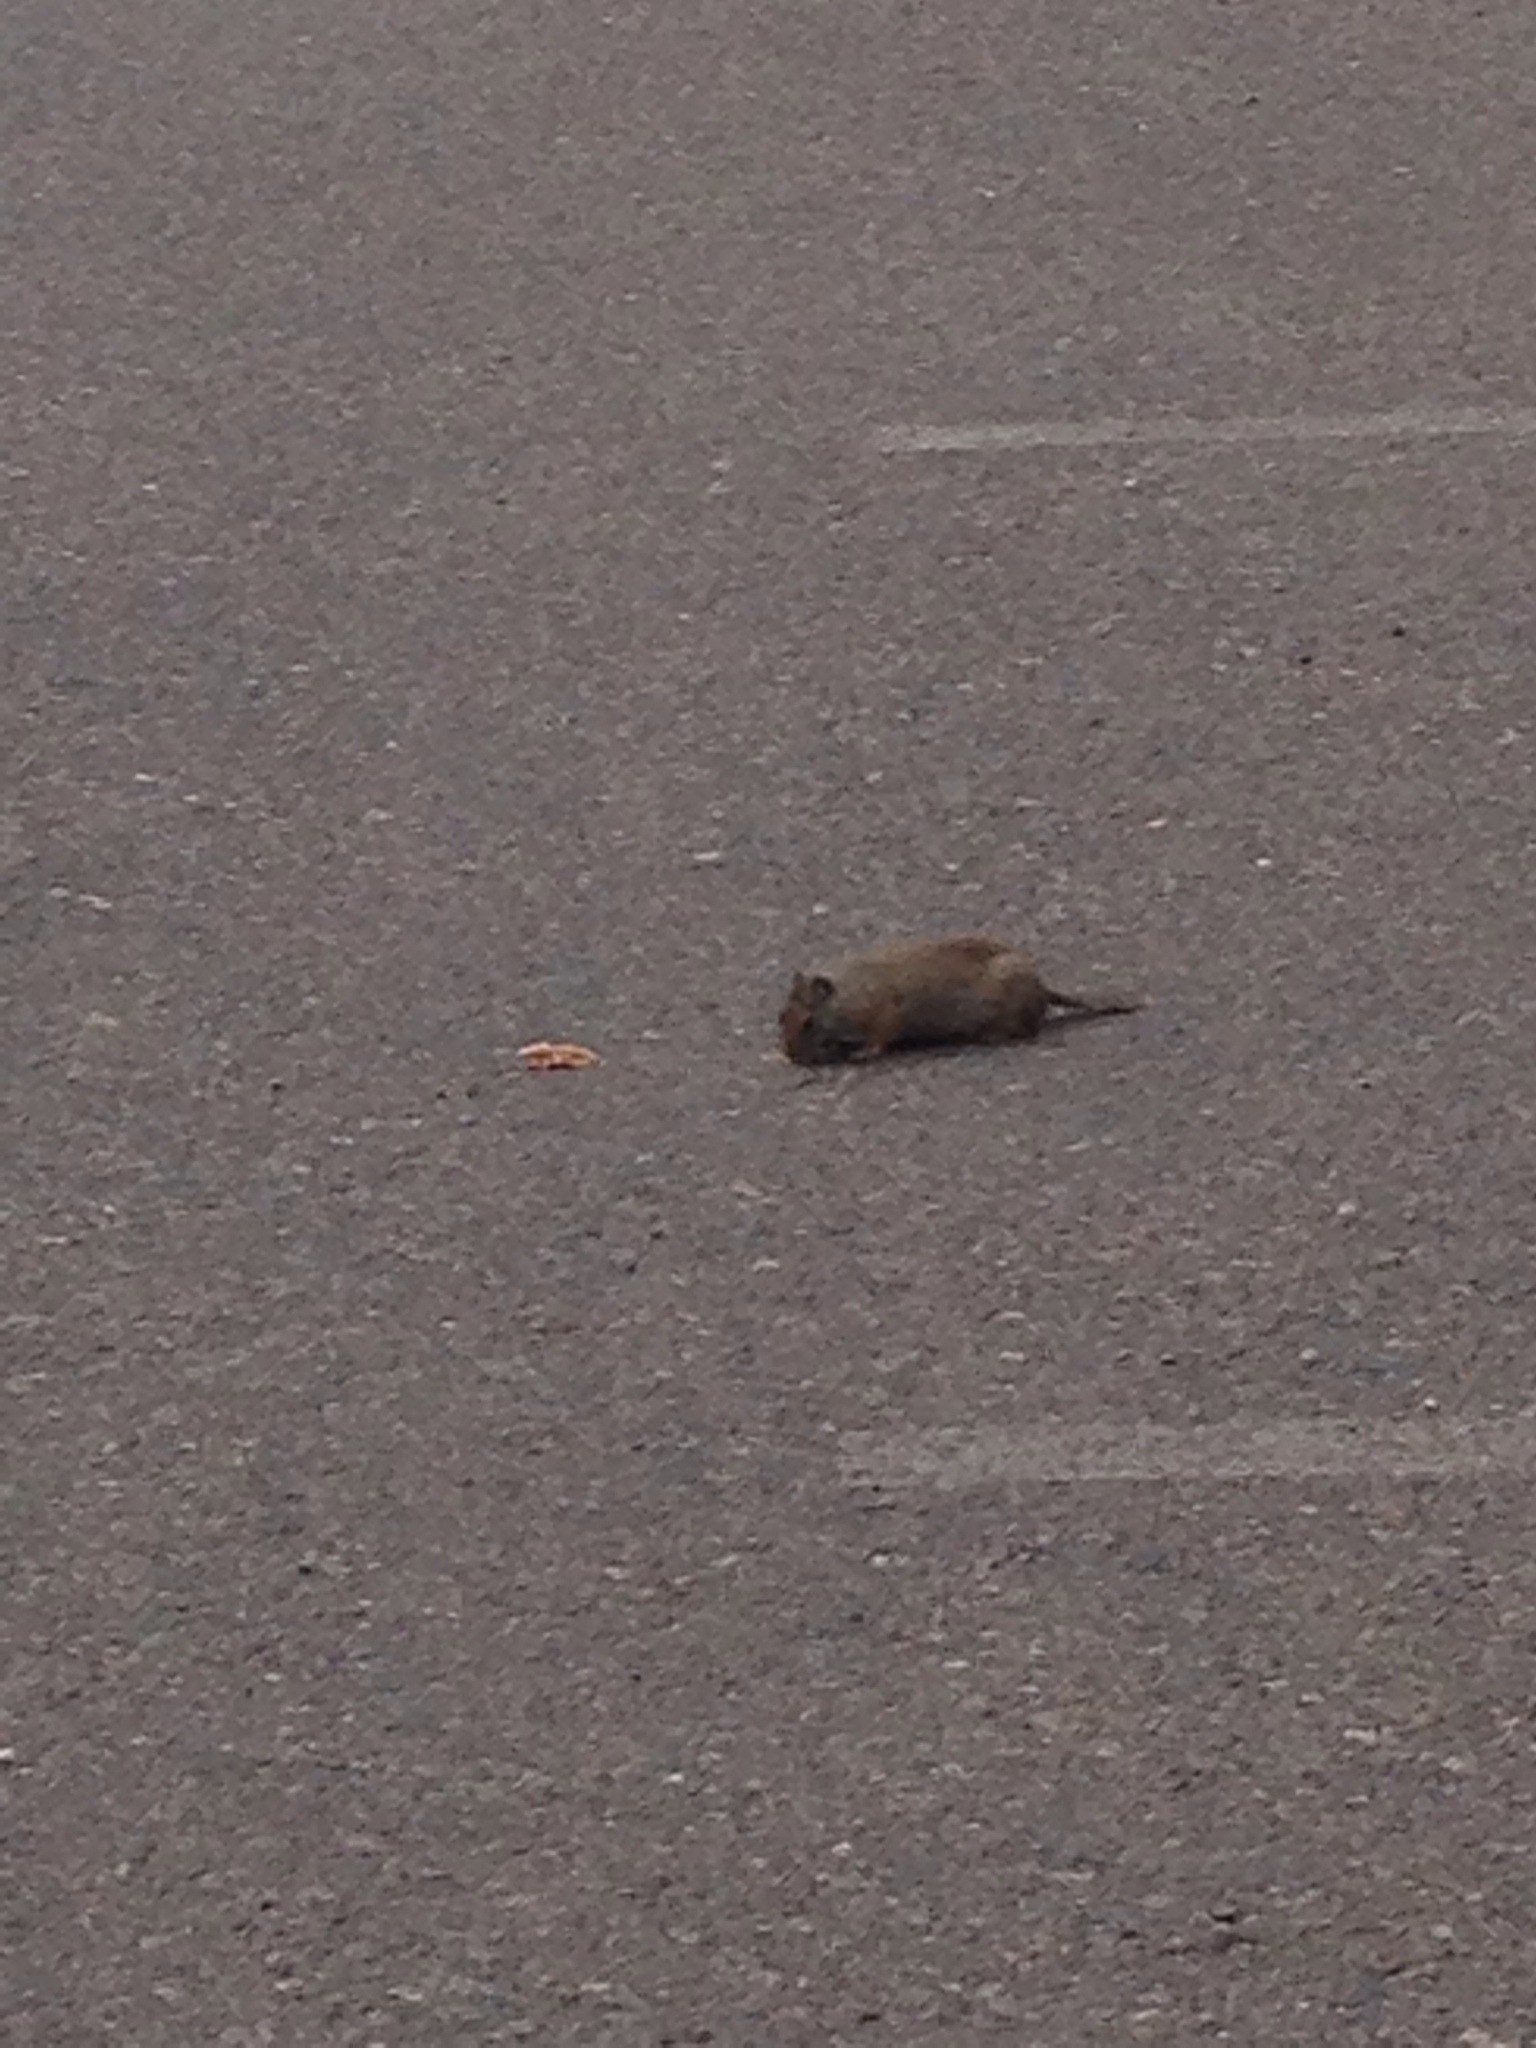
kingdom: Animalia
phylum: Chordata
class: Mammalia
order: Rodentia
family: Sciuridae
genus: Urocitellus
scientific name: Urocitellus armatus
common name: Uinta ground squirrel
